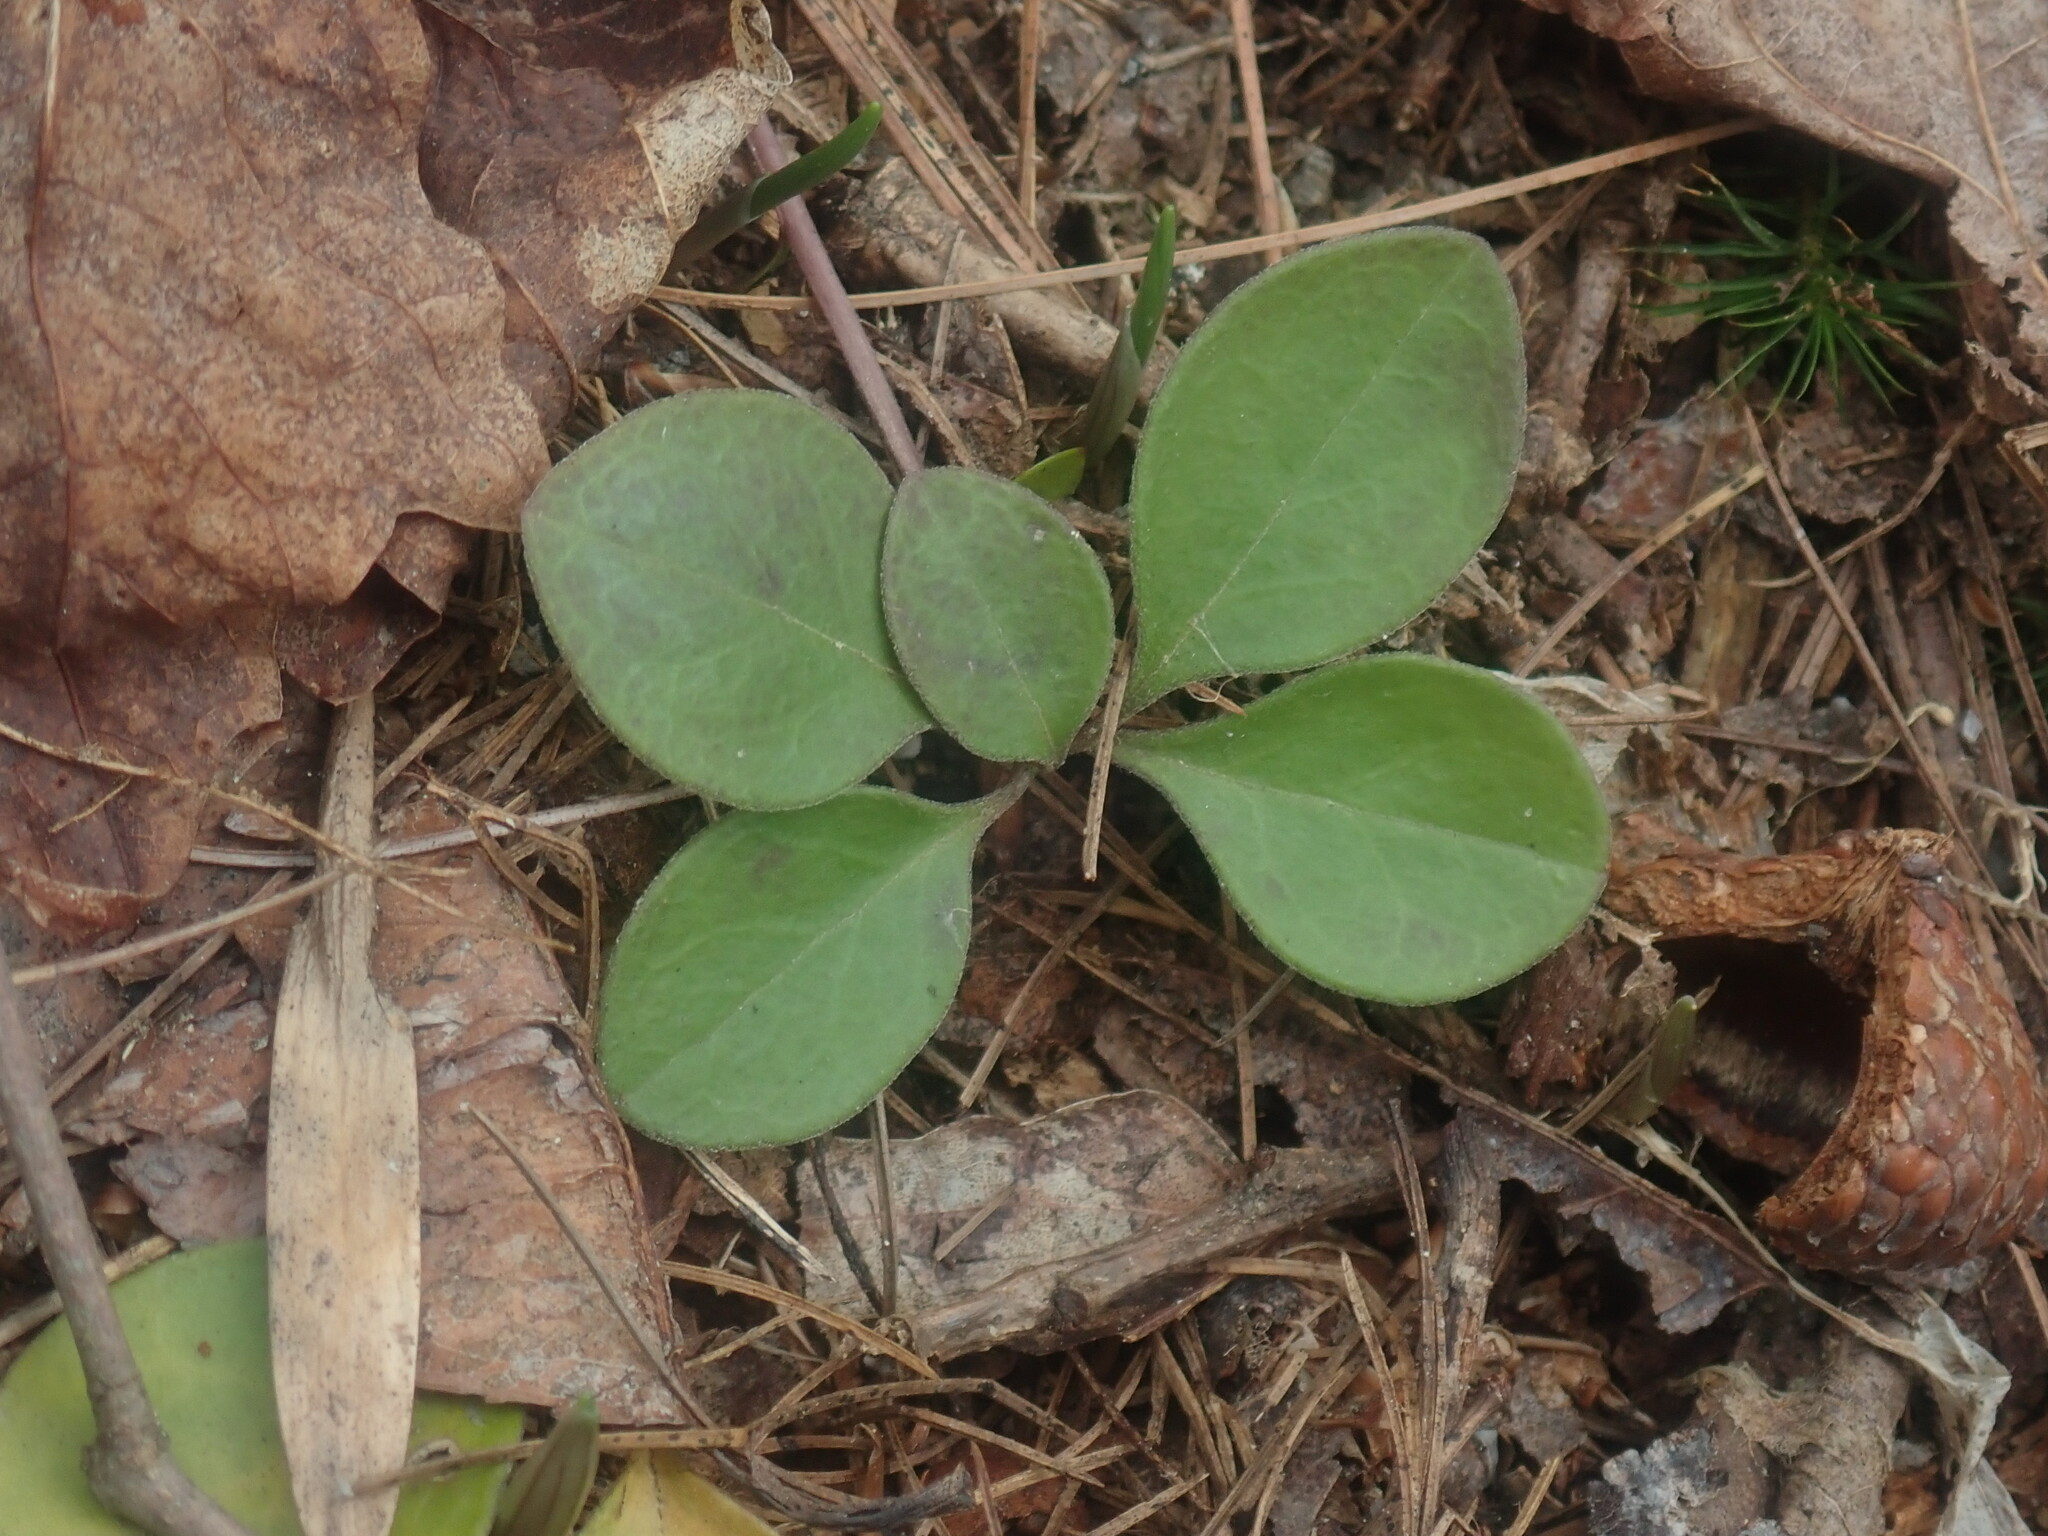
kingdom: Plantae
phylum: Tracheophyta
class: Magnoliopsida
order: Fabales
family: Polygalaceae
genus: Polygaloides
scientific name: Polygaloides paucifolia
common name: Bird-on-the-wing
